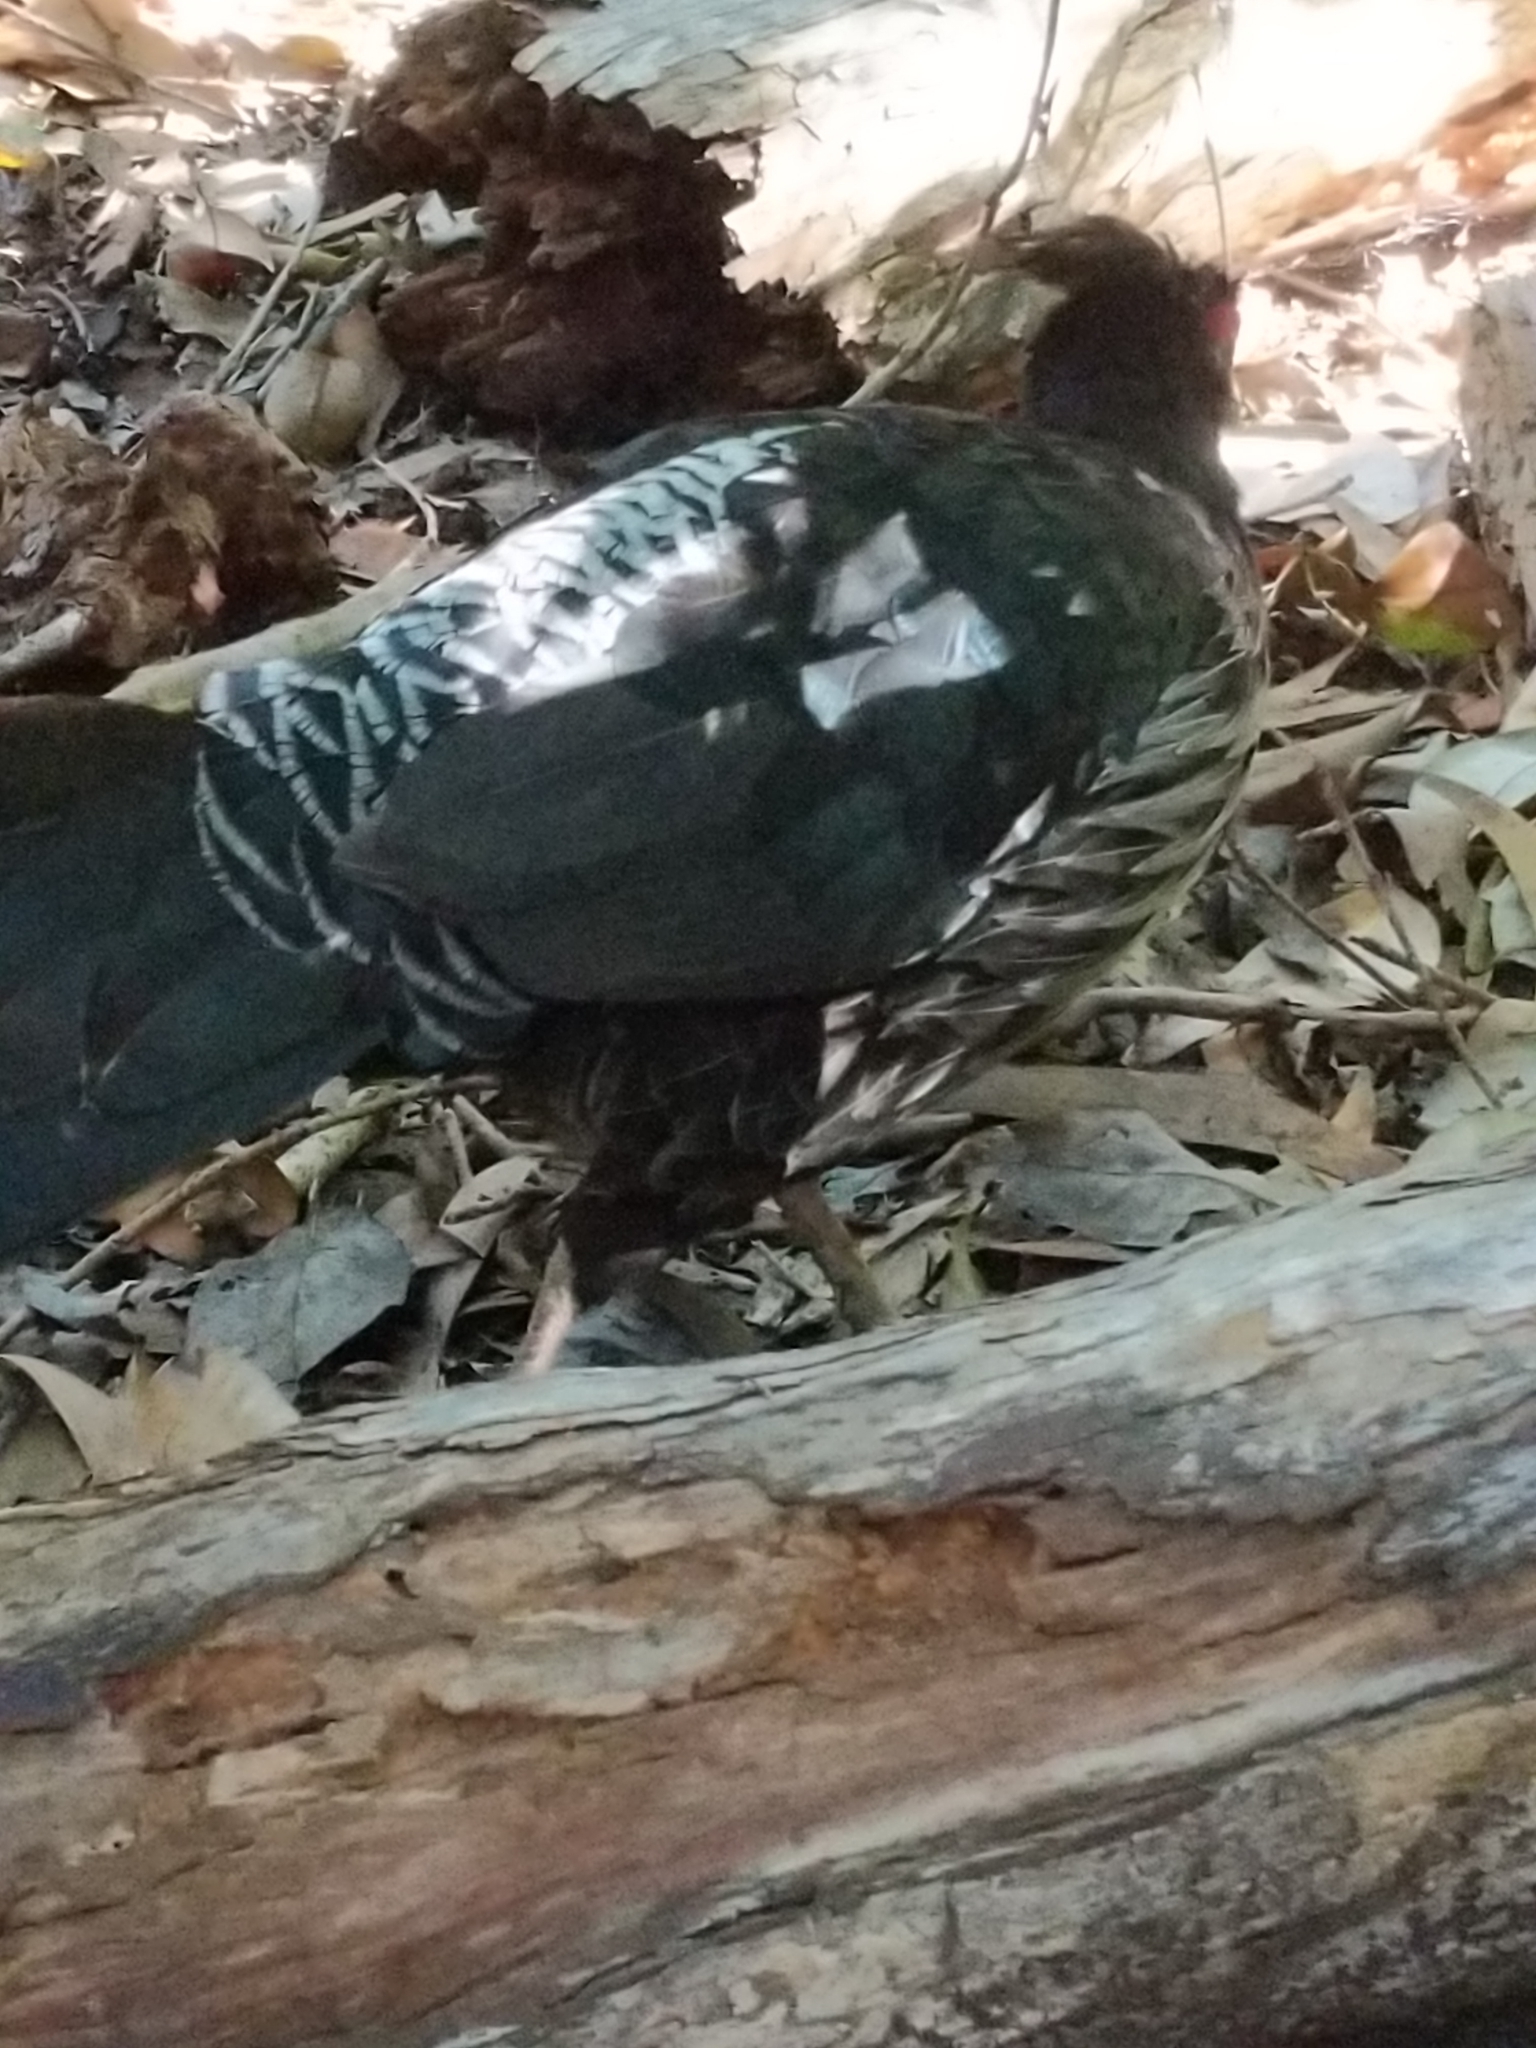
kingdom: Animalia
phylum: Chordata
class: Aves
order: Galliformes
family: Phasianidae
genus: Lophura
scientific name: Lophura leucomelanos
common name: Kalij pheasant
